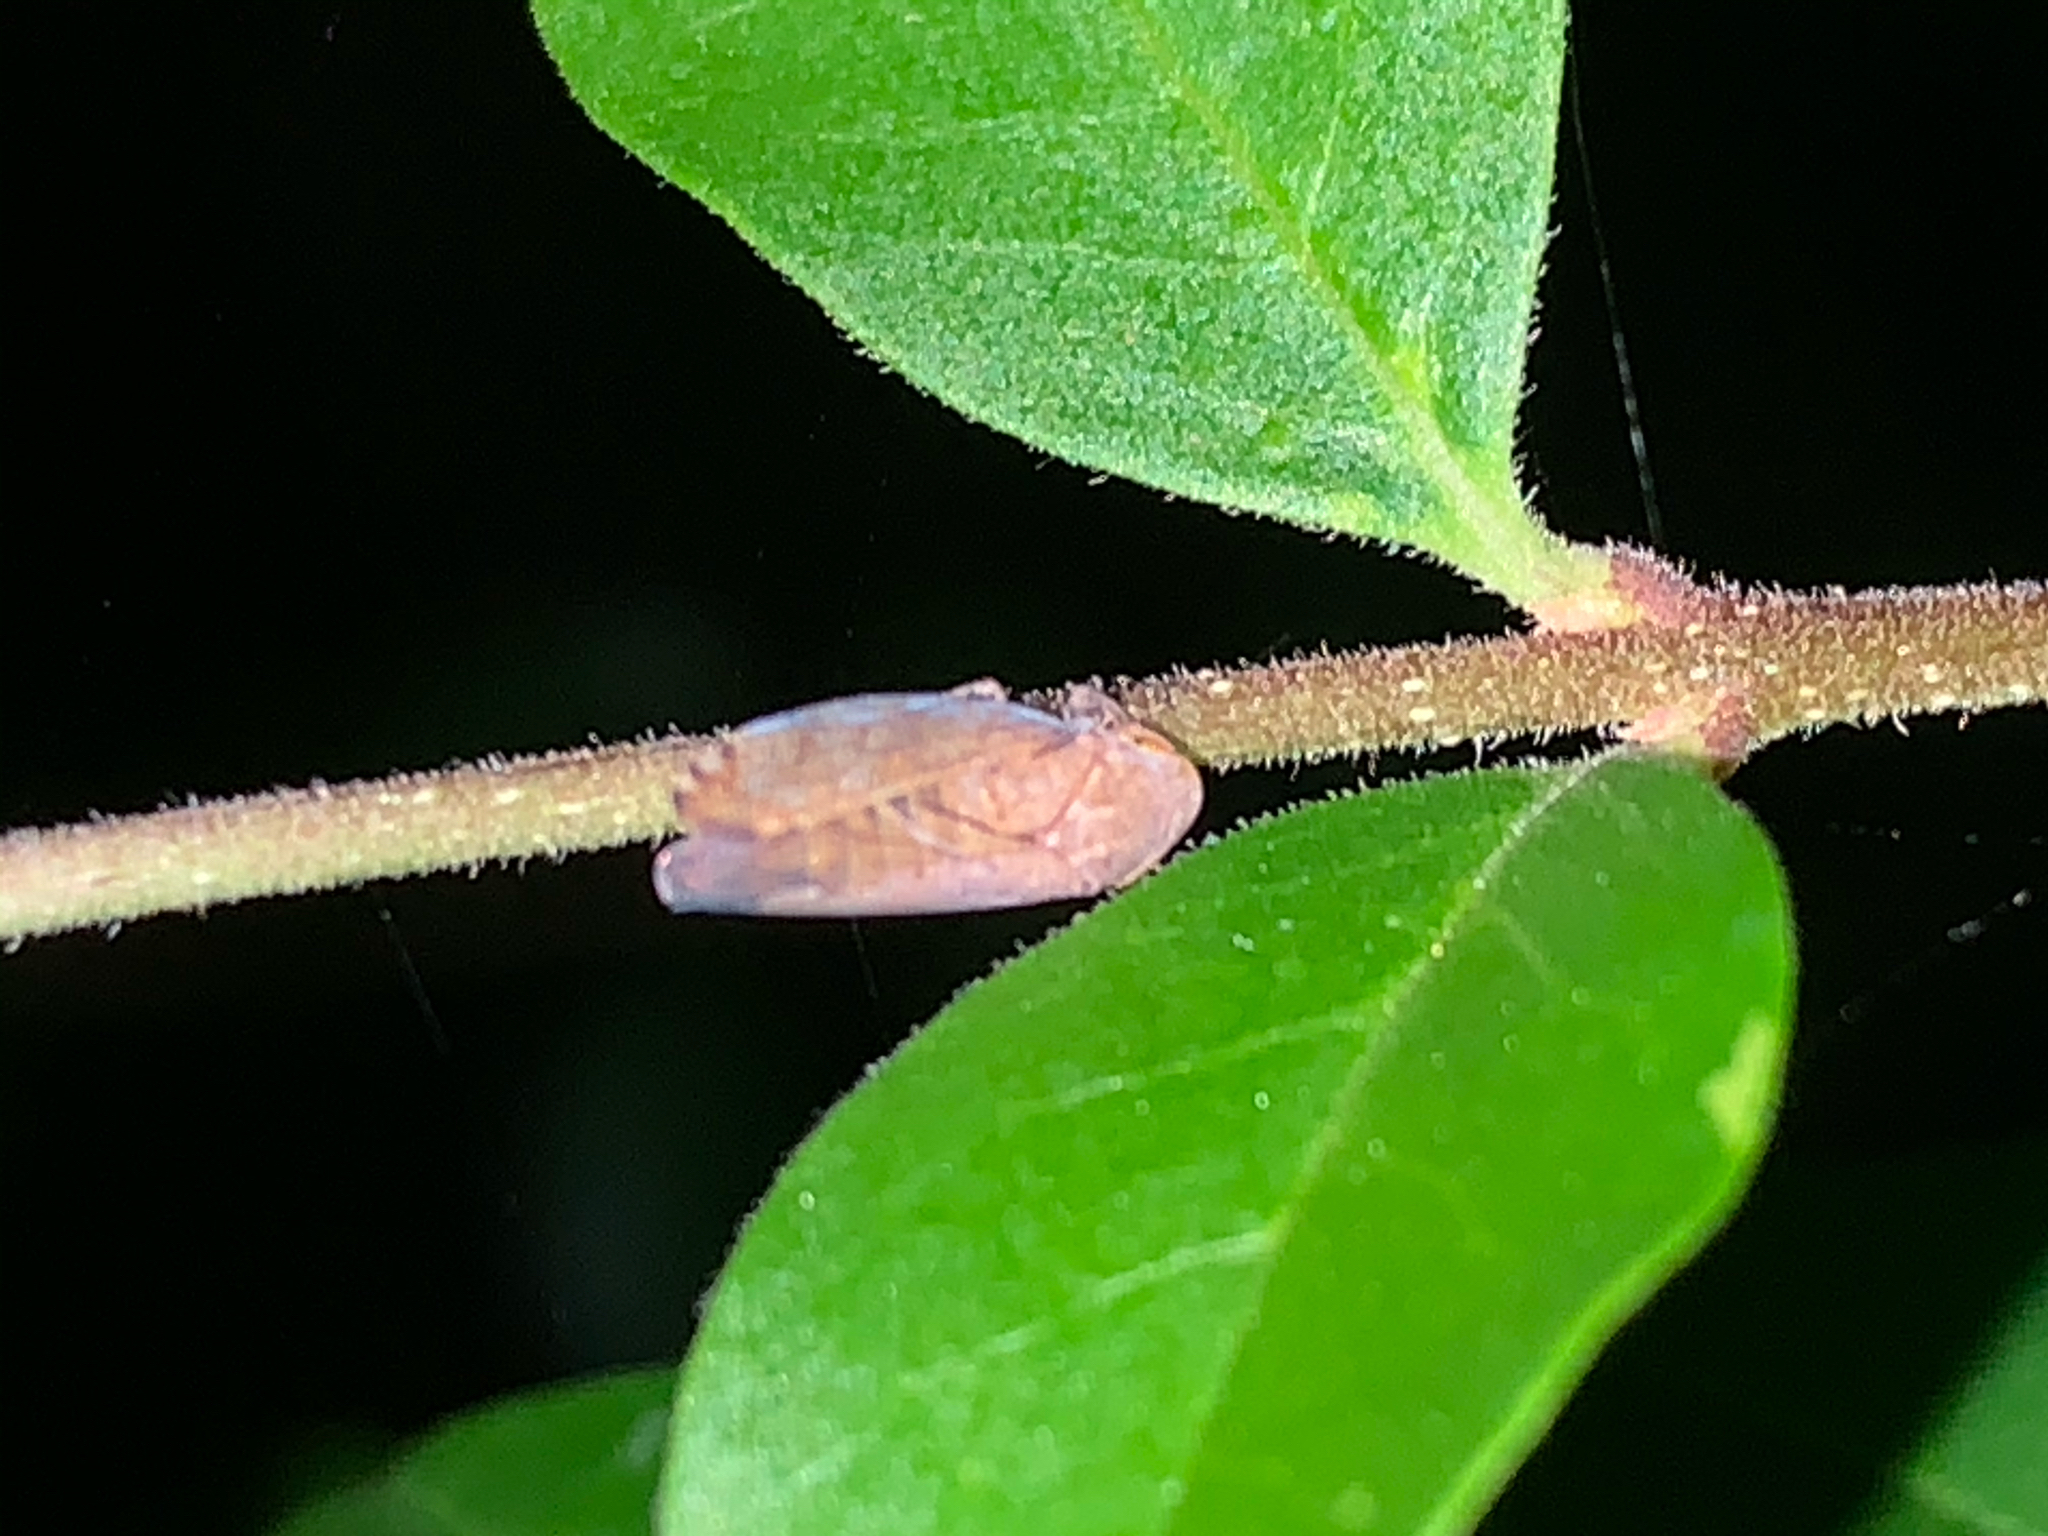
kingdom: Animalia
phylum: Arthropoda
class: Insecta
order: Hemiptera
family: Cicadellidae
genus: Fieberiella
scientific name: Fieberiella florii
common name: Flor’s leafhopper
